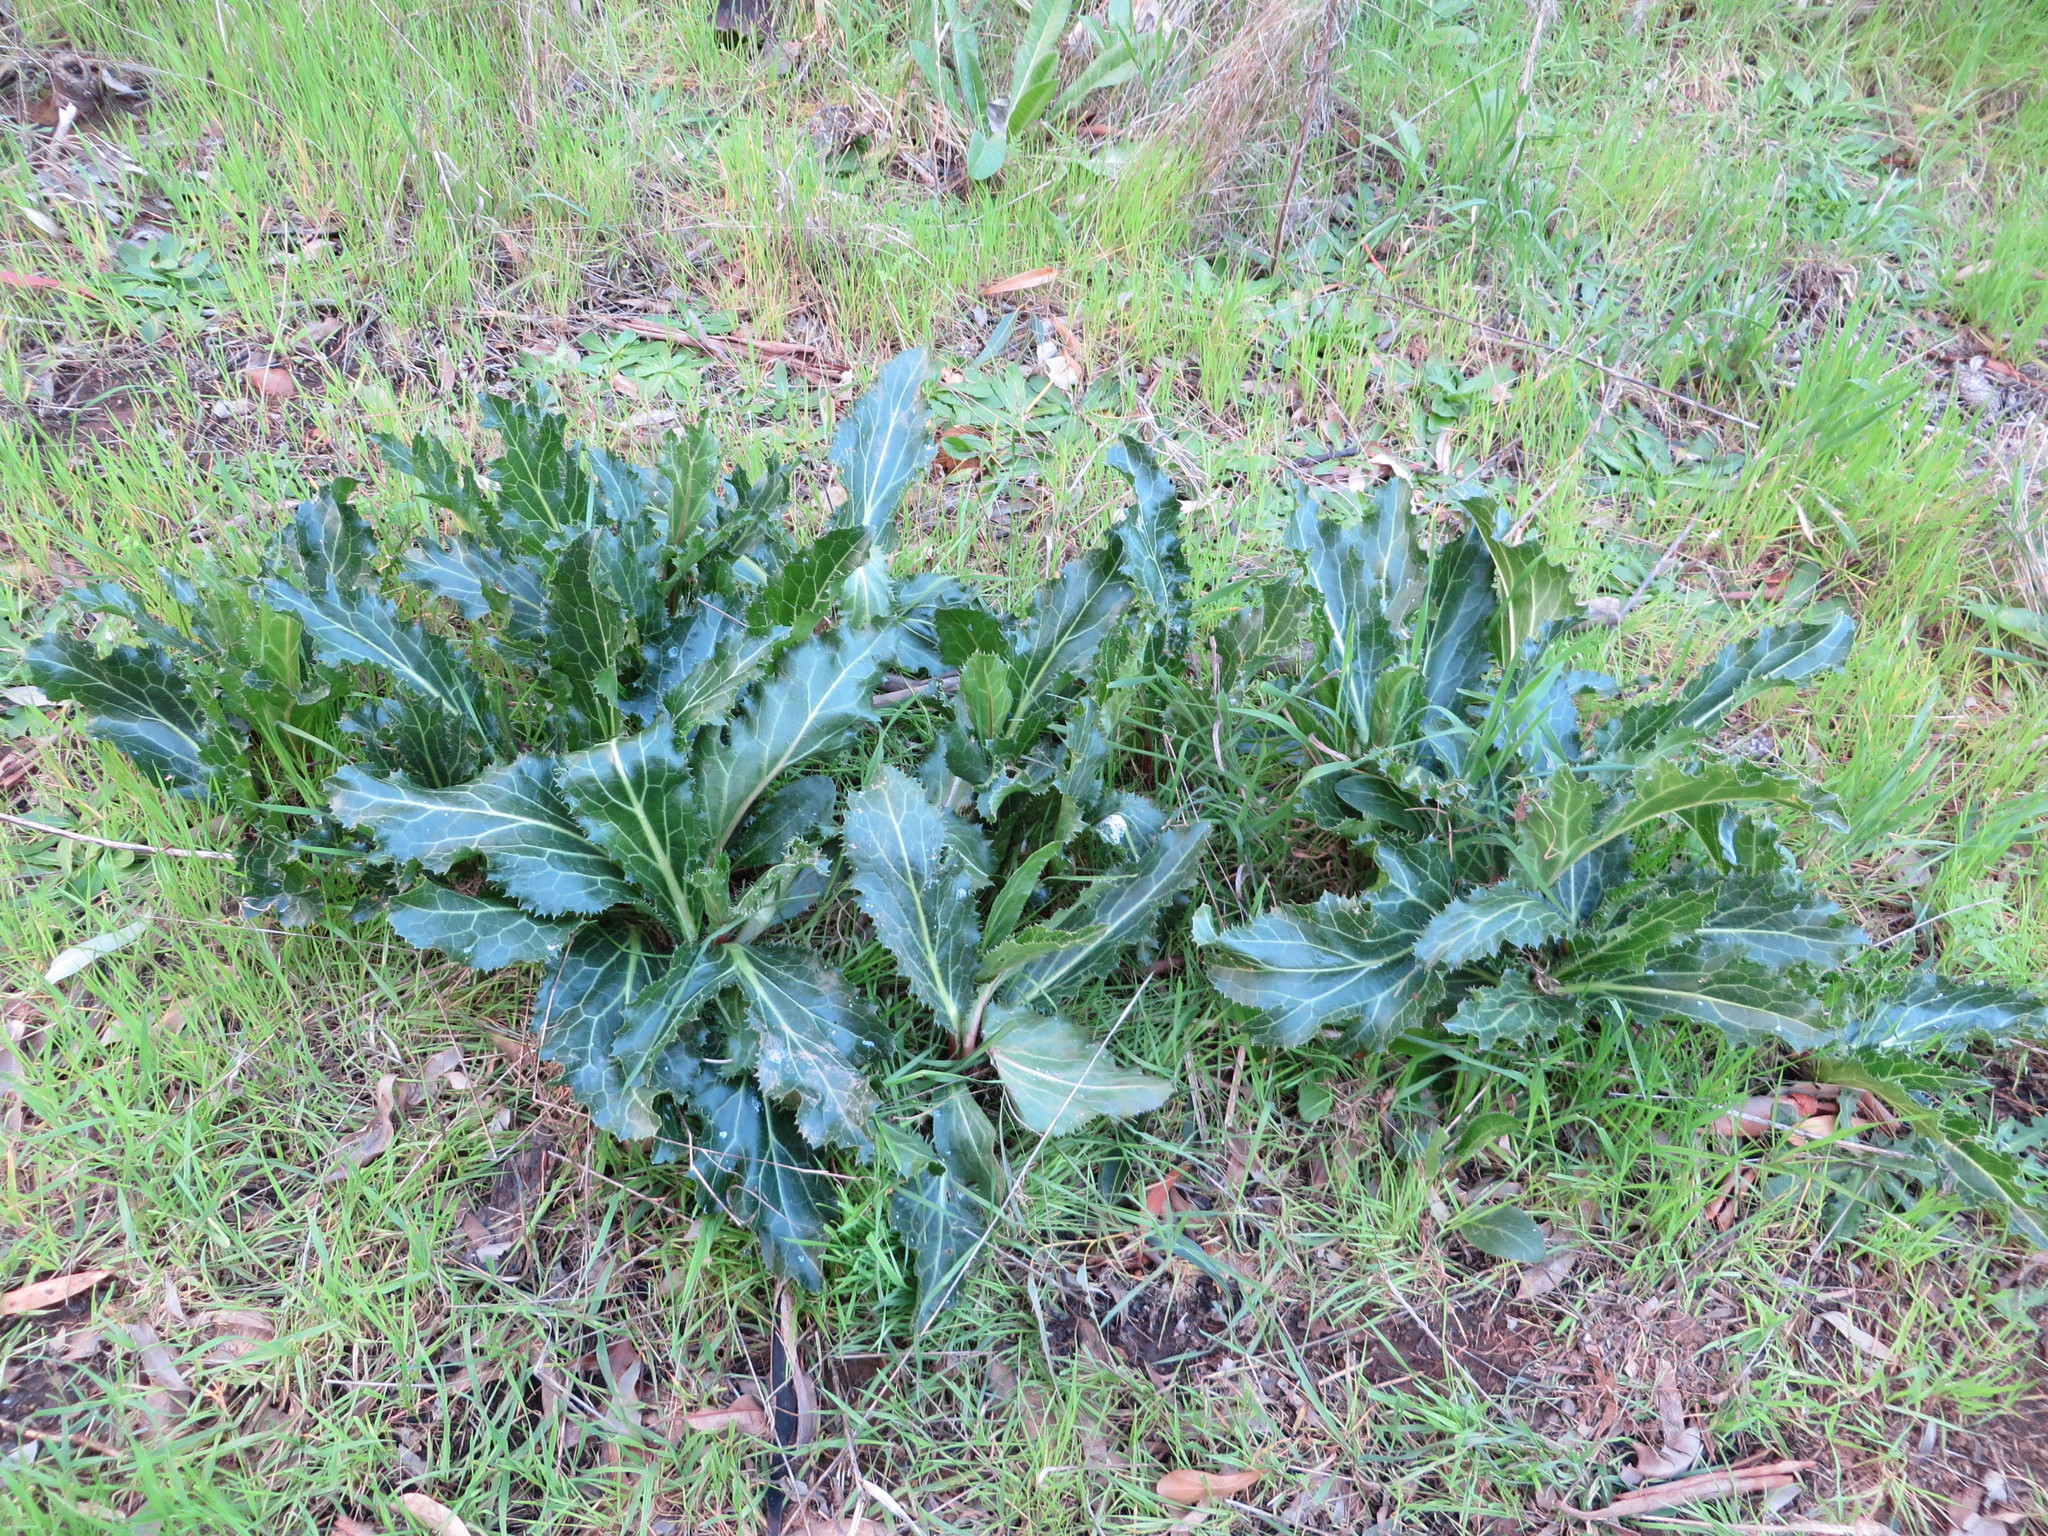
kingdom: Plantae
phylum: Tracheophyta
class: Magnoliopsida
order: Apiales
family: Apiaceae
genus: Lichtensteinia
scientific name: Lichtensteinia lacera
